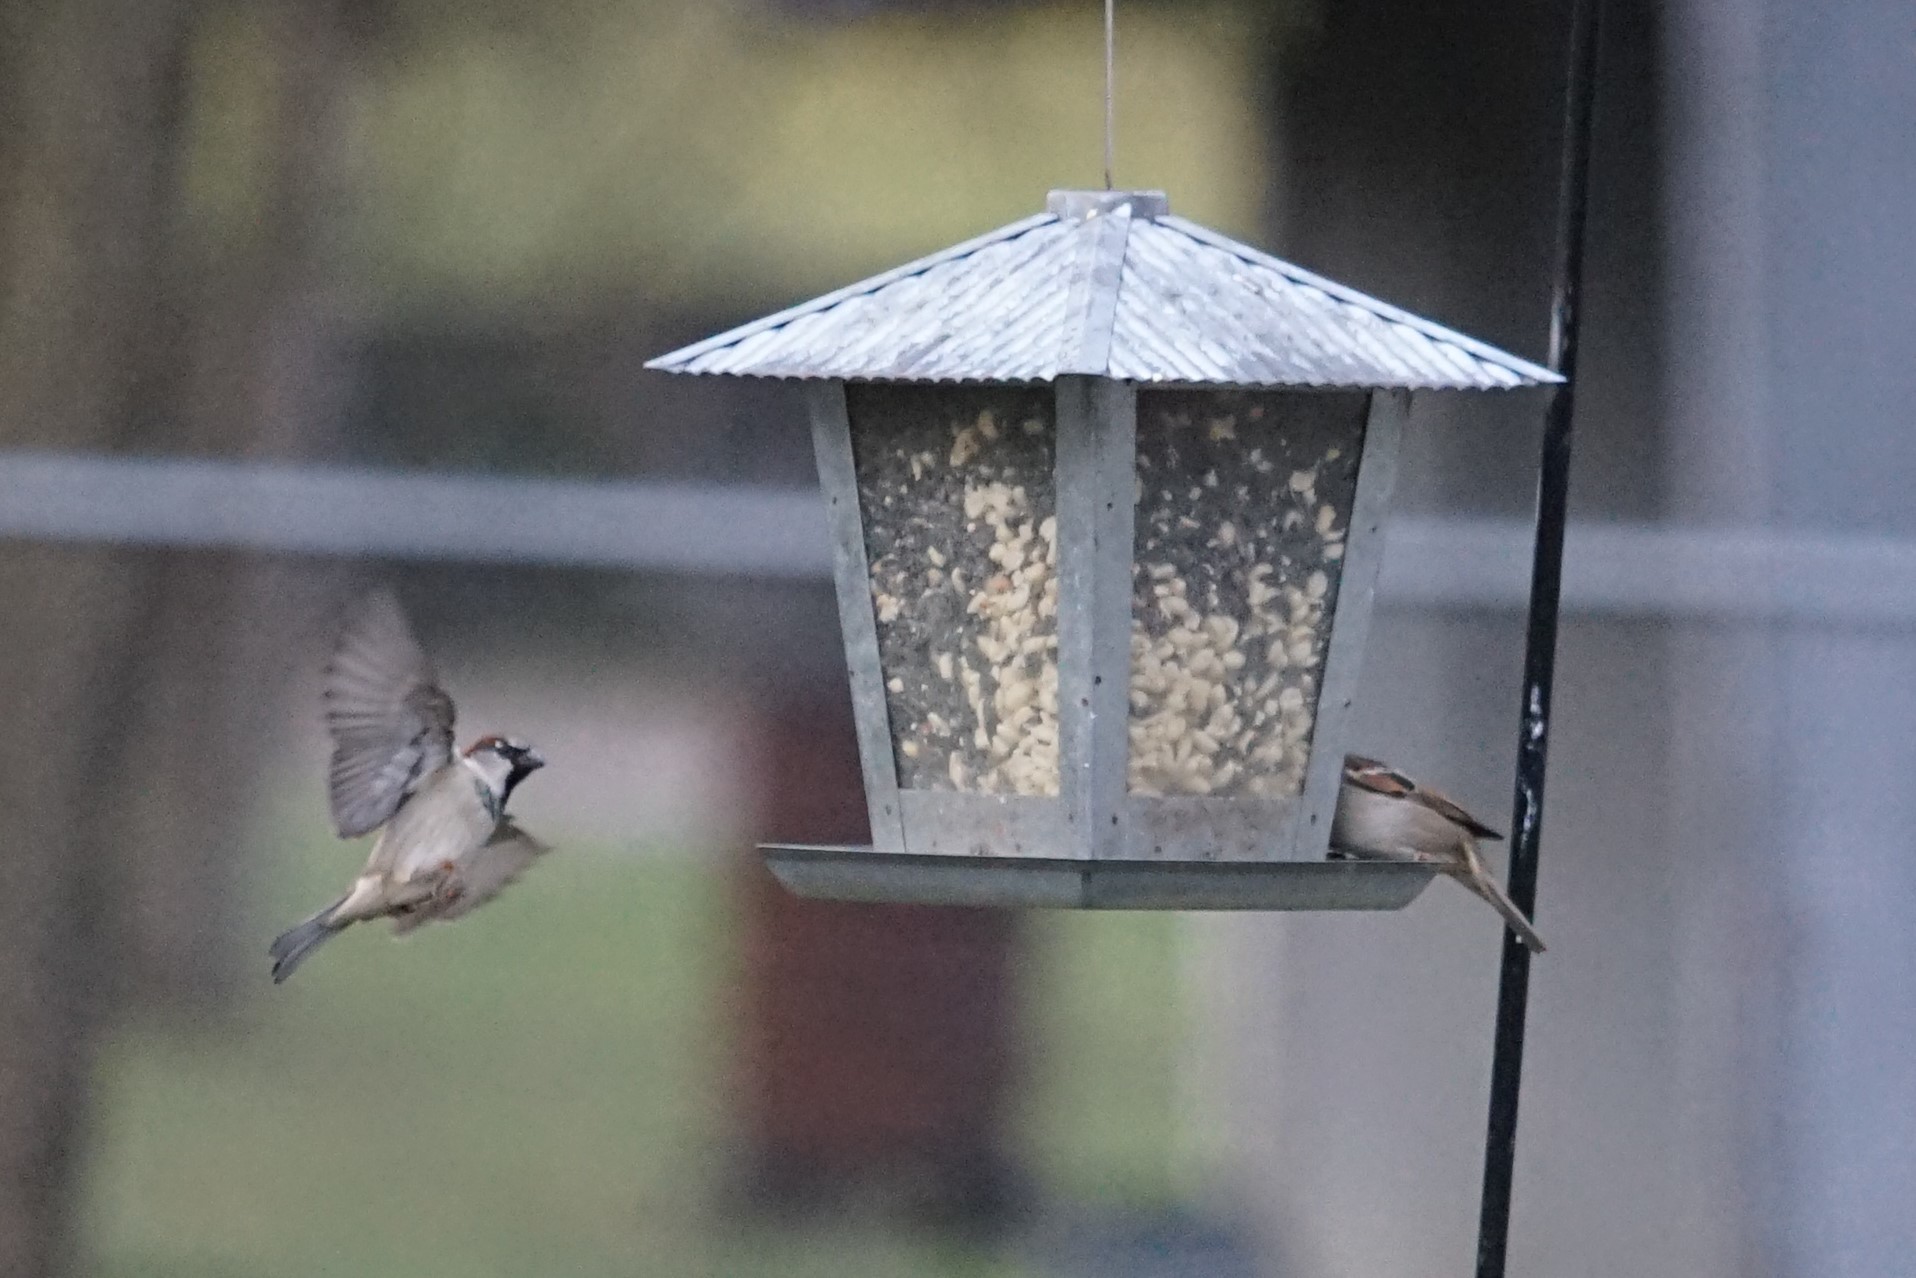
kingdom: Animalia
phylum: Chordata
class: Aves
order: Passeriformes
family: Passeridae
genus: Passer
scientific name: Passer domesticus
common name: House sparrow
